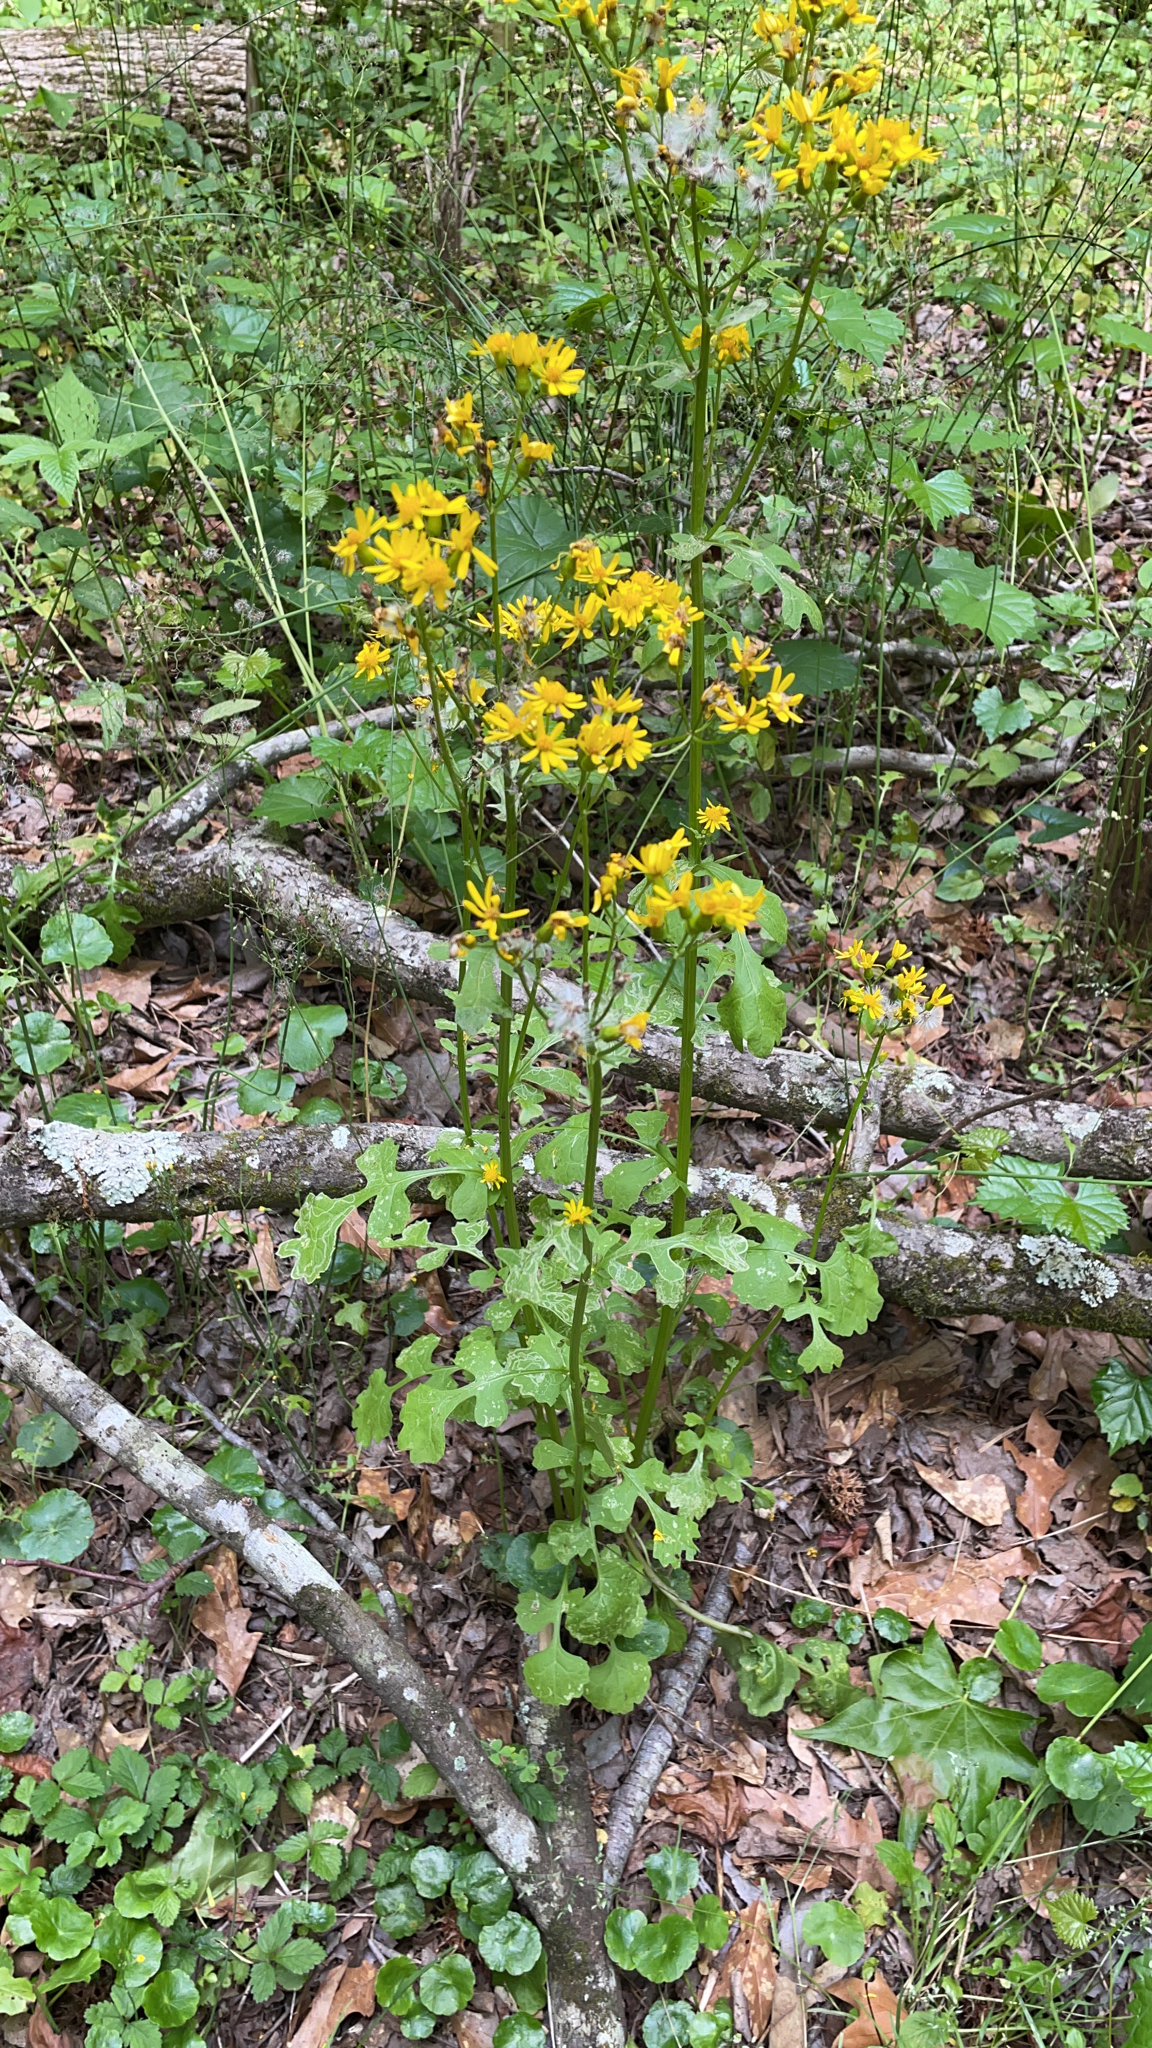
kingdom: Plantae
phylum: Tracheophyta
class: Magnoliopsida
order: Asterales
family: Asteraceae
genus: Packera
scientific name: Packera glabella
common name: Butterweed
